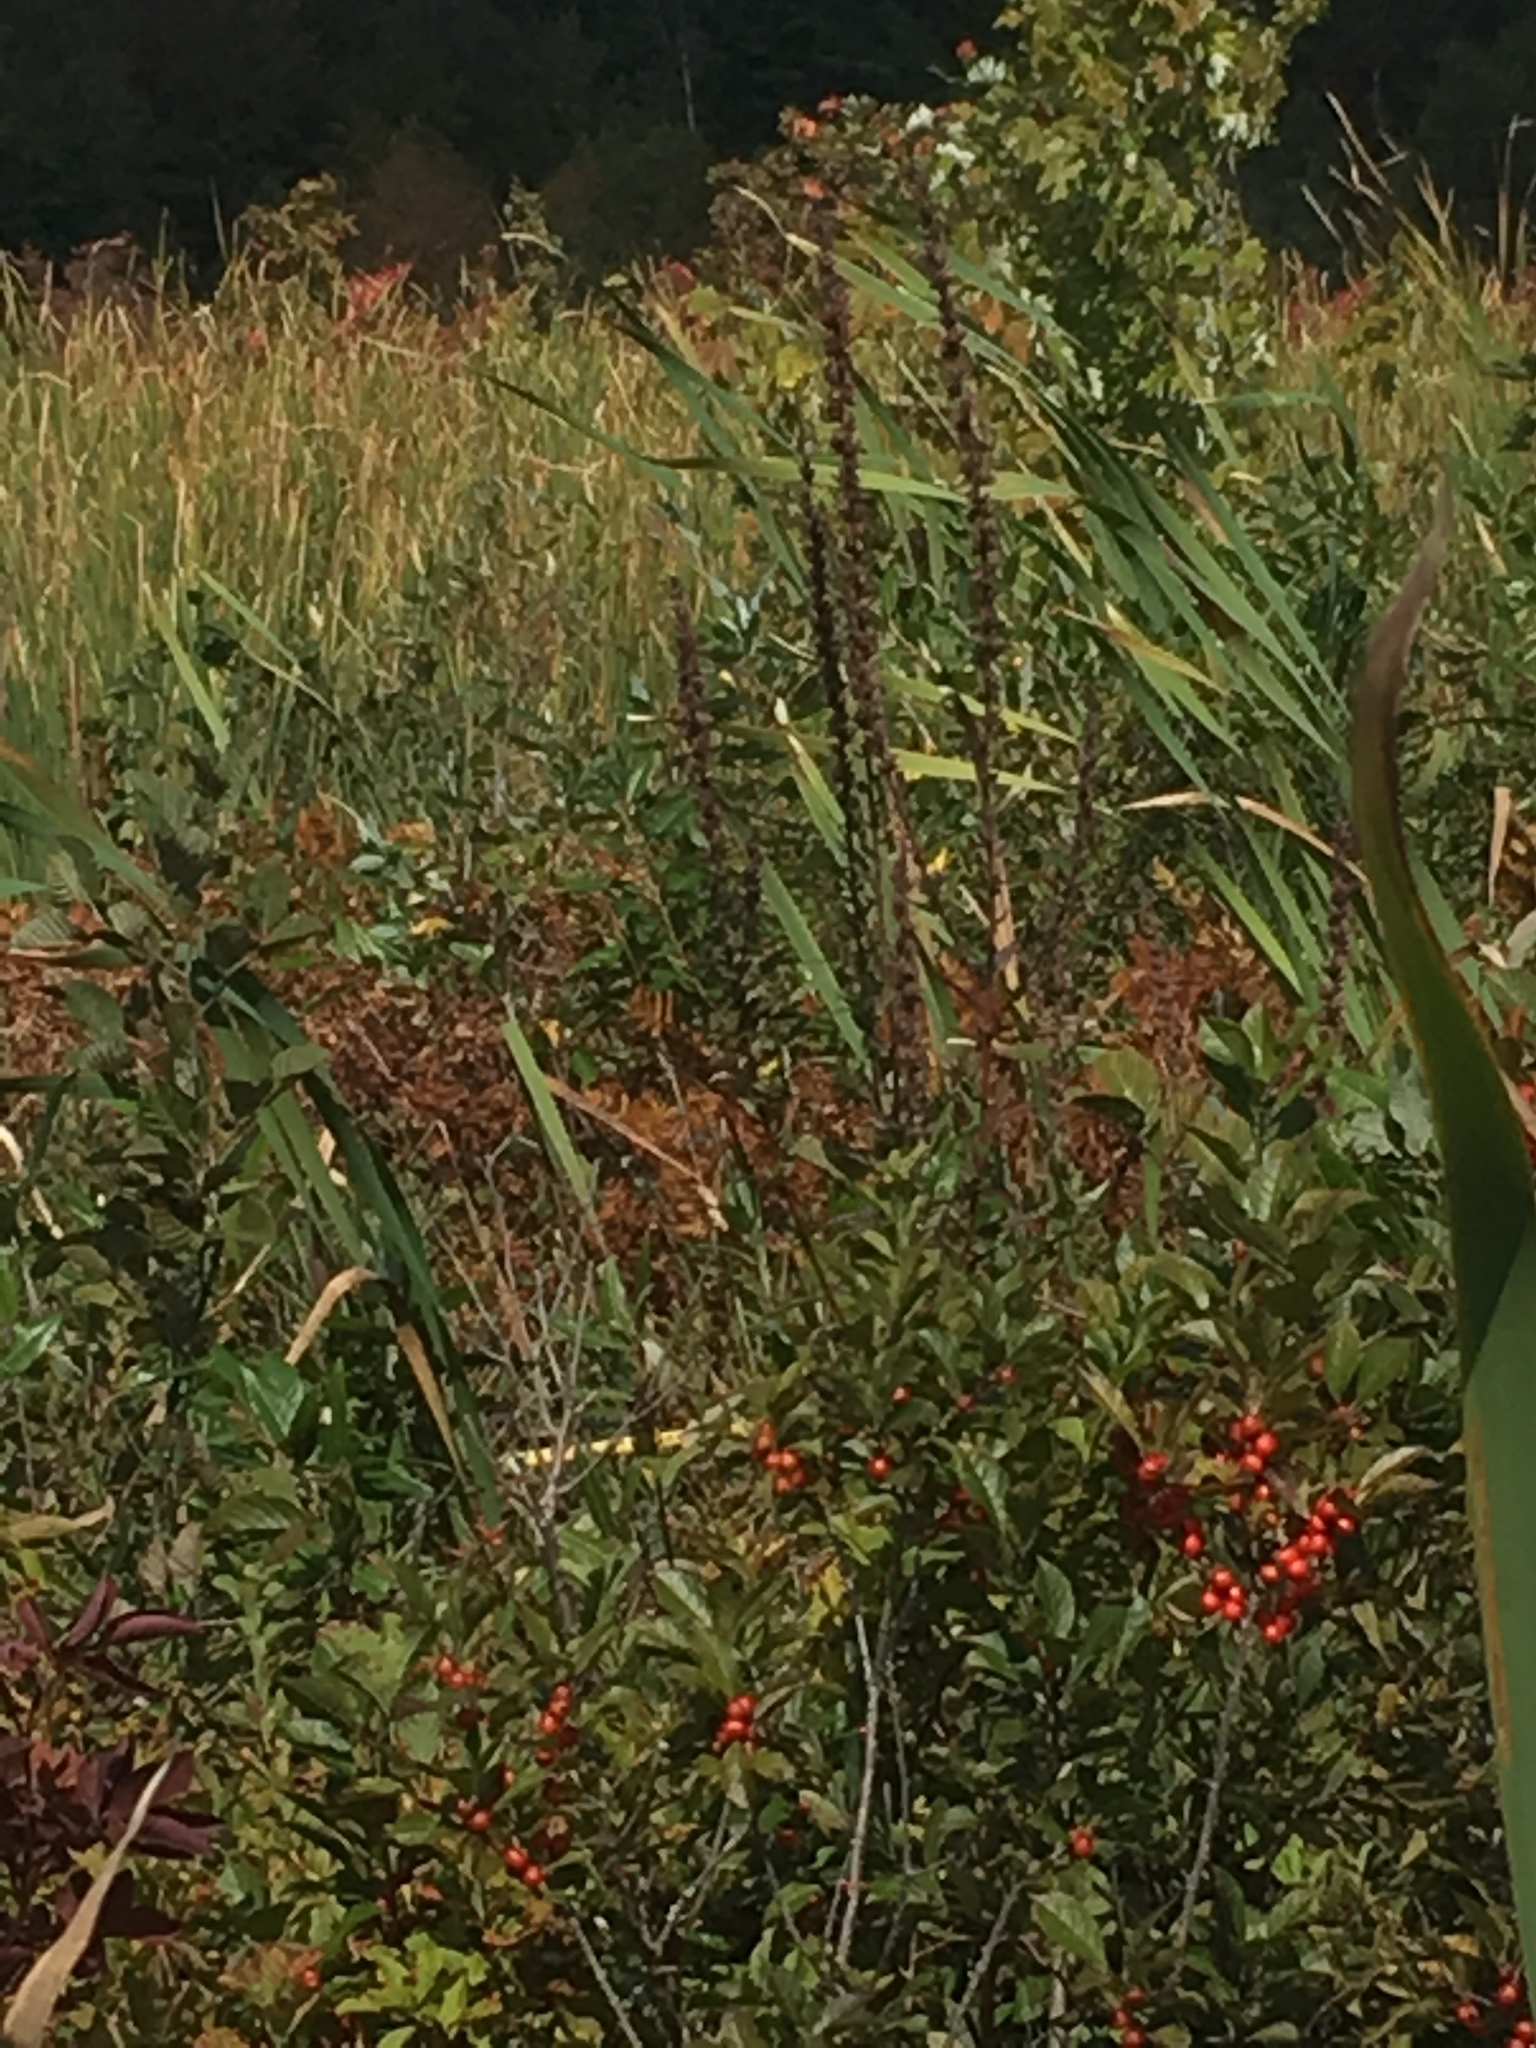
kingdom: Plantae
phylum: Tracheophyta
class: Magnoliopsida
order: Myrtales
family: Lythraceae
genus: Lythrum
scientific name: Lythrum salicaria
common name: Purple loosestrife
